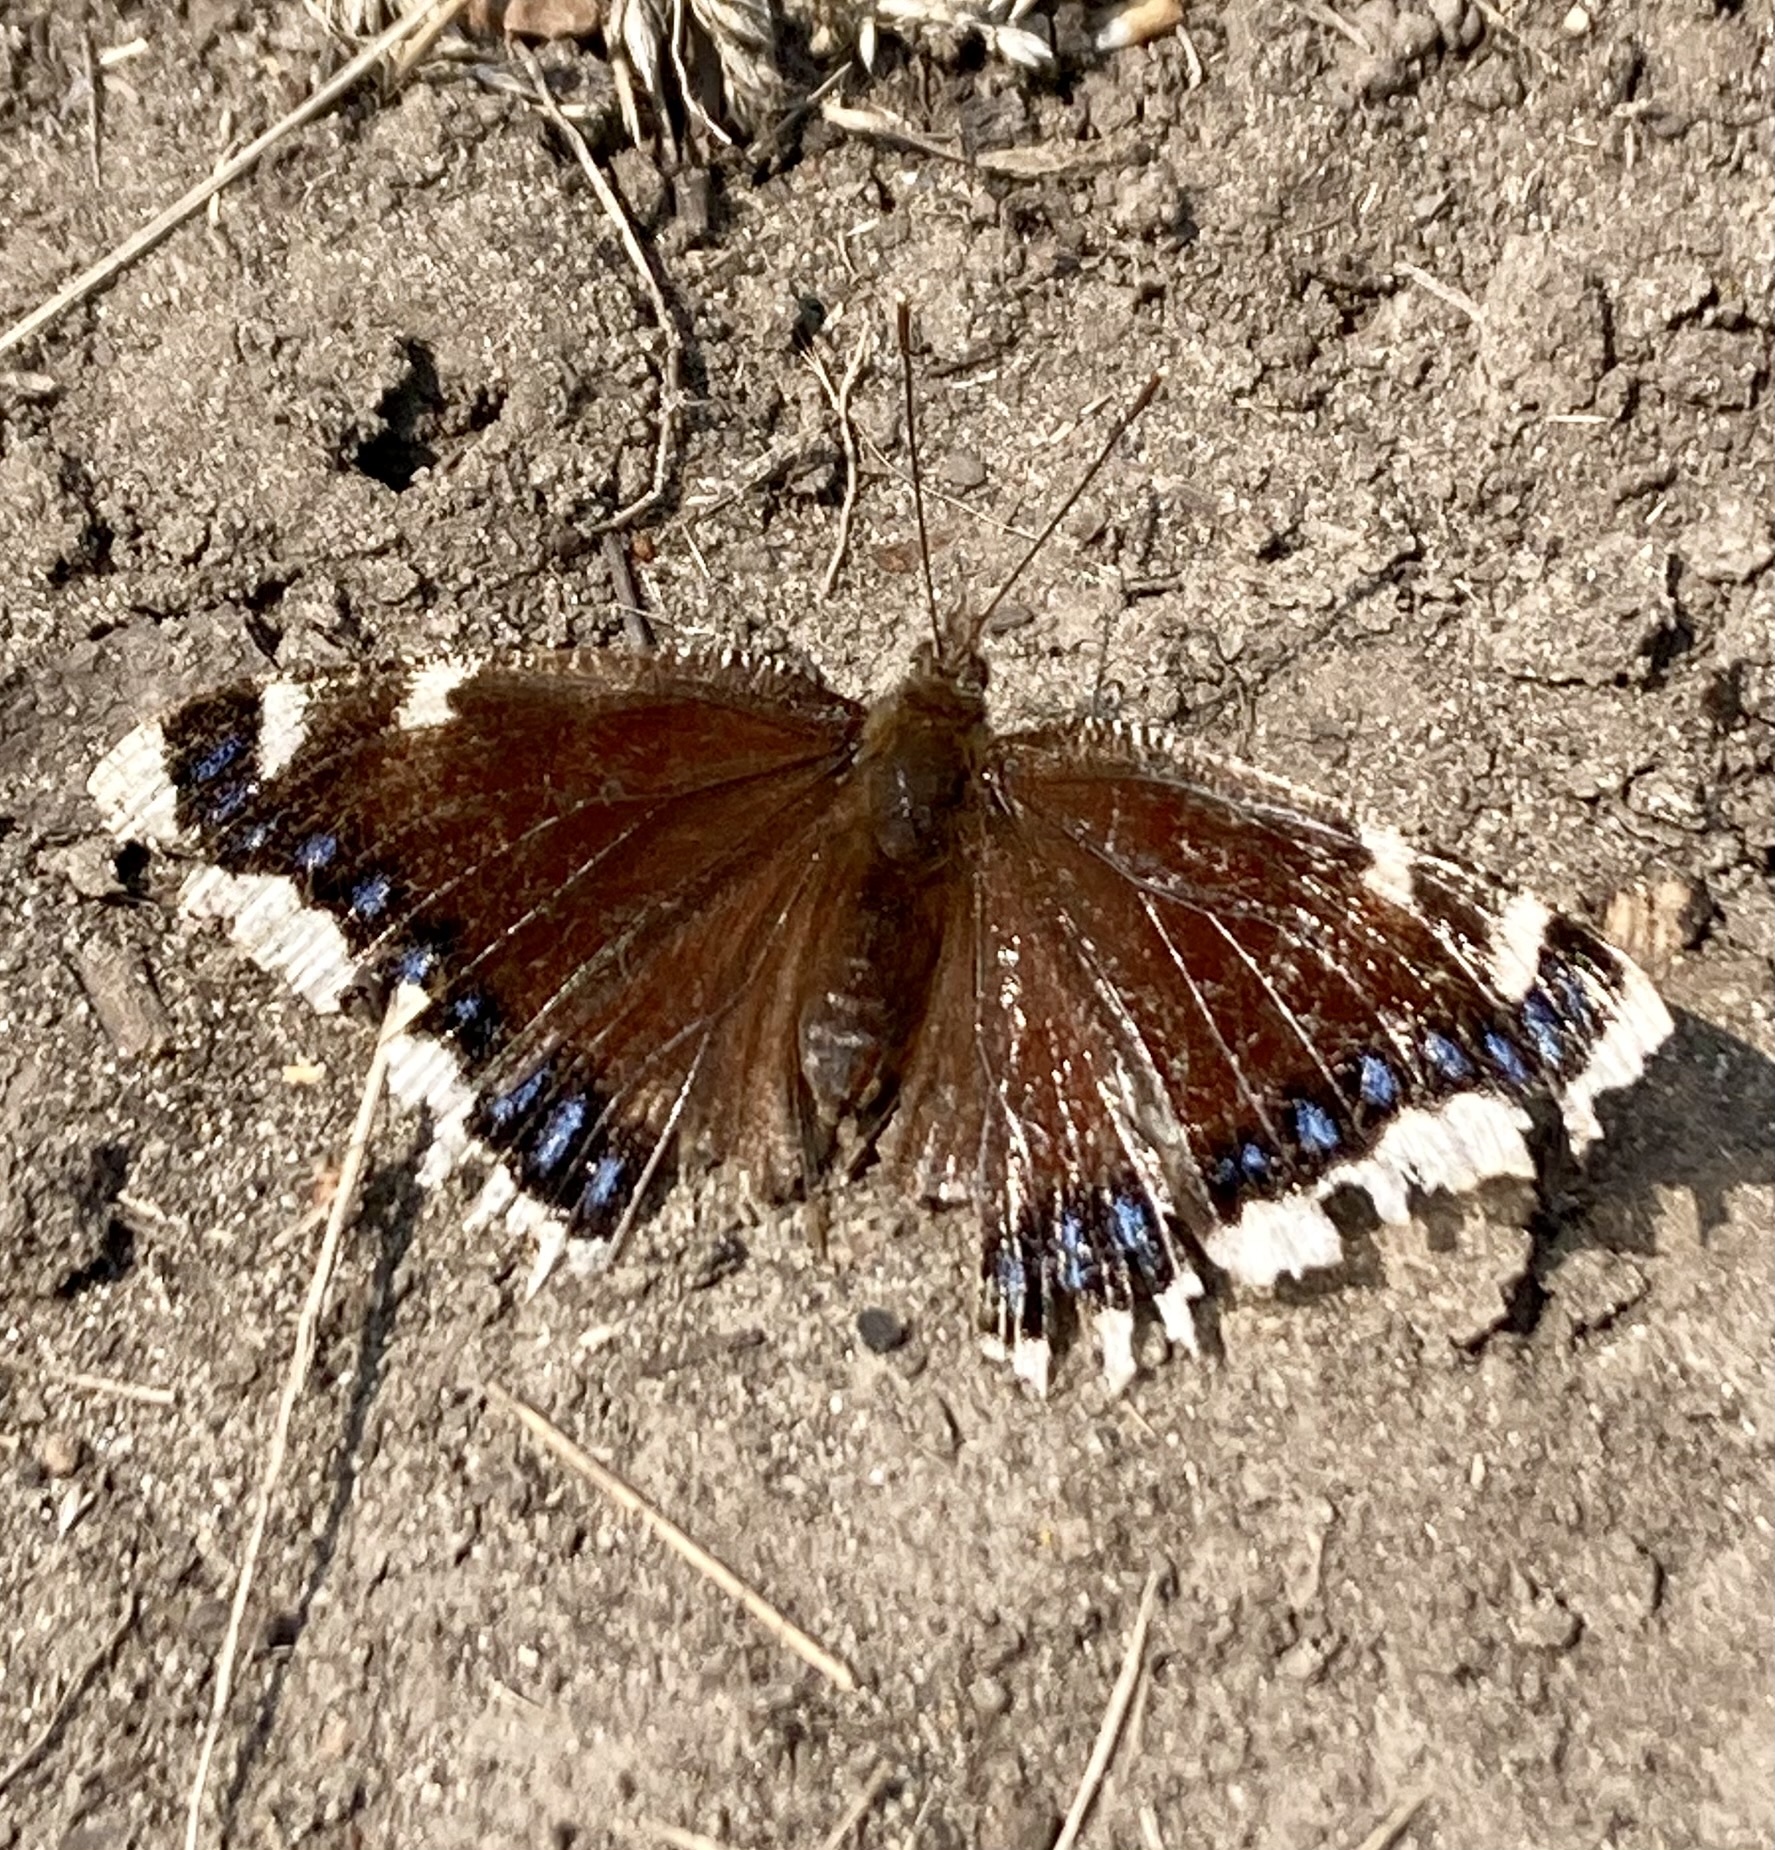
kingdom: Animalia
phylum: Arthropoda
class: Insecta
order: Lepidoptera
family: Nymphalidae
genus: Nymphalis
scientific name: Nymphalis antiopa
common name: Camberwell beauty
